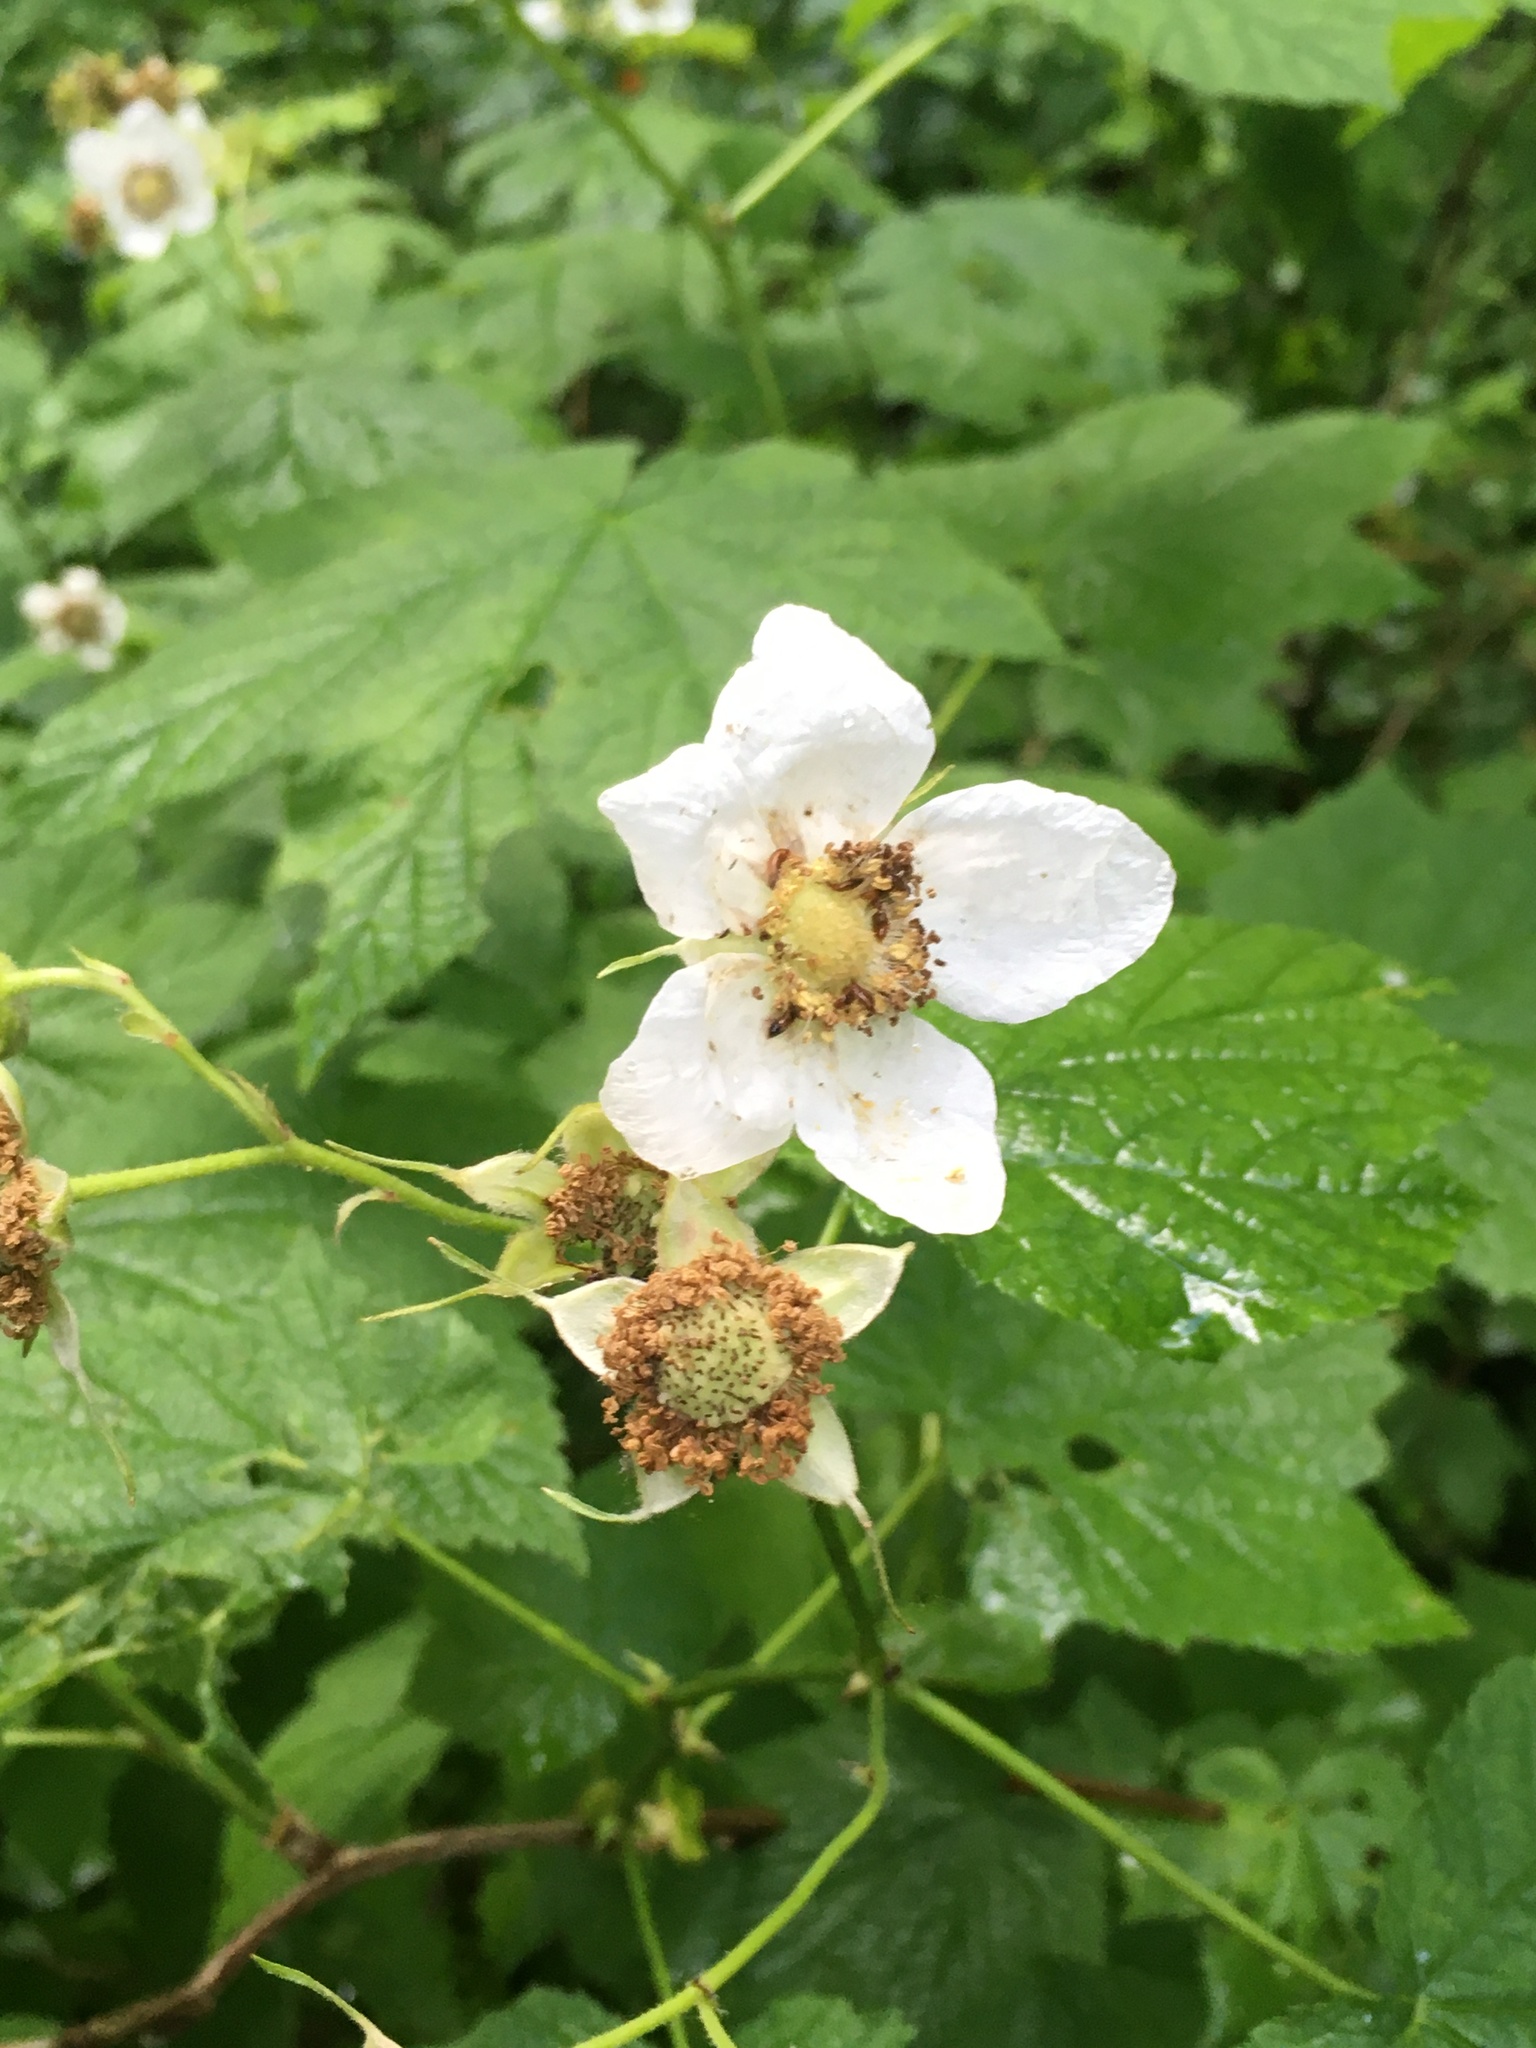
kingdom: Plantae
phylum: Tracheophyta
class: Magnoliopsida
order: Rosales
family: Rosaceae
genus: Rubus
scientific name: Rubus parviflorus
